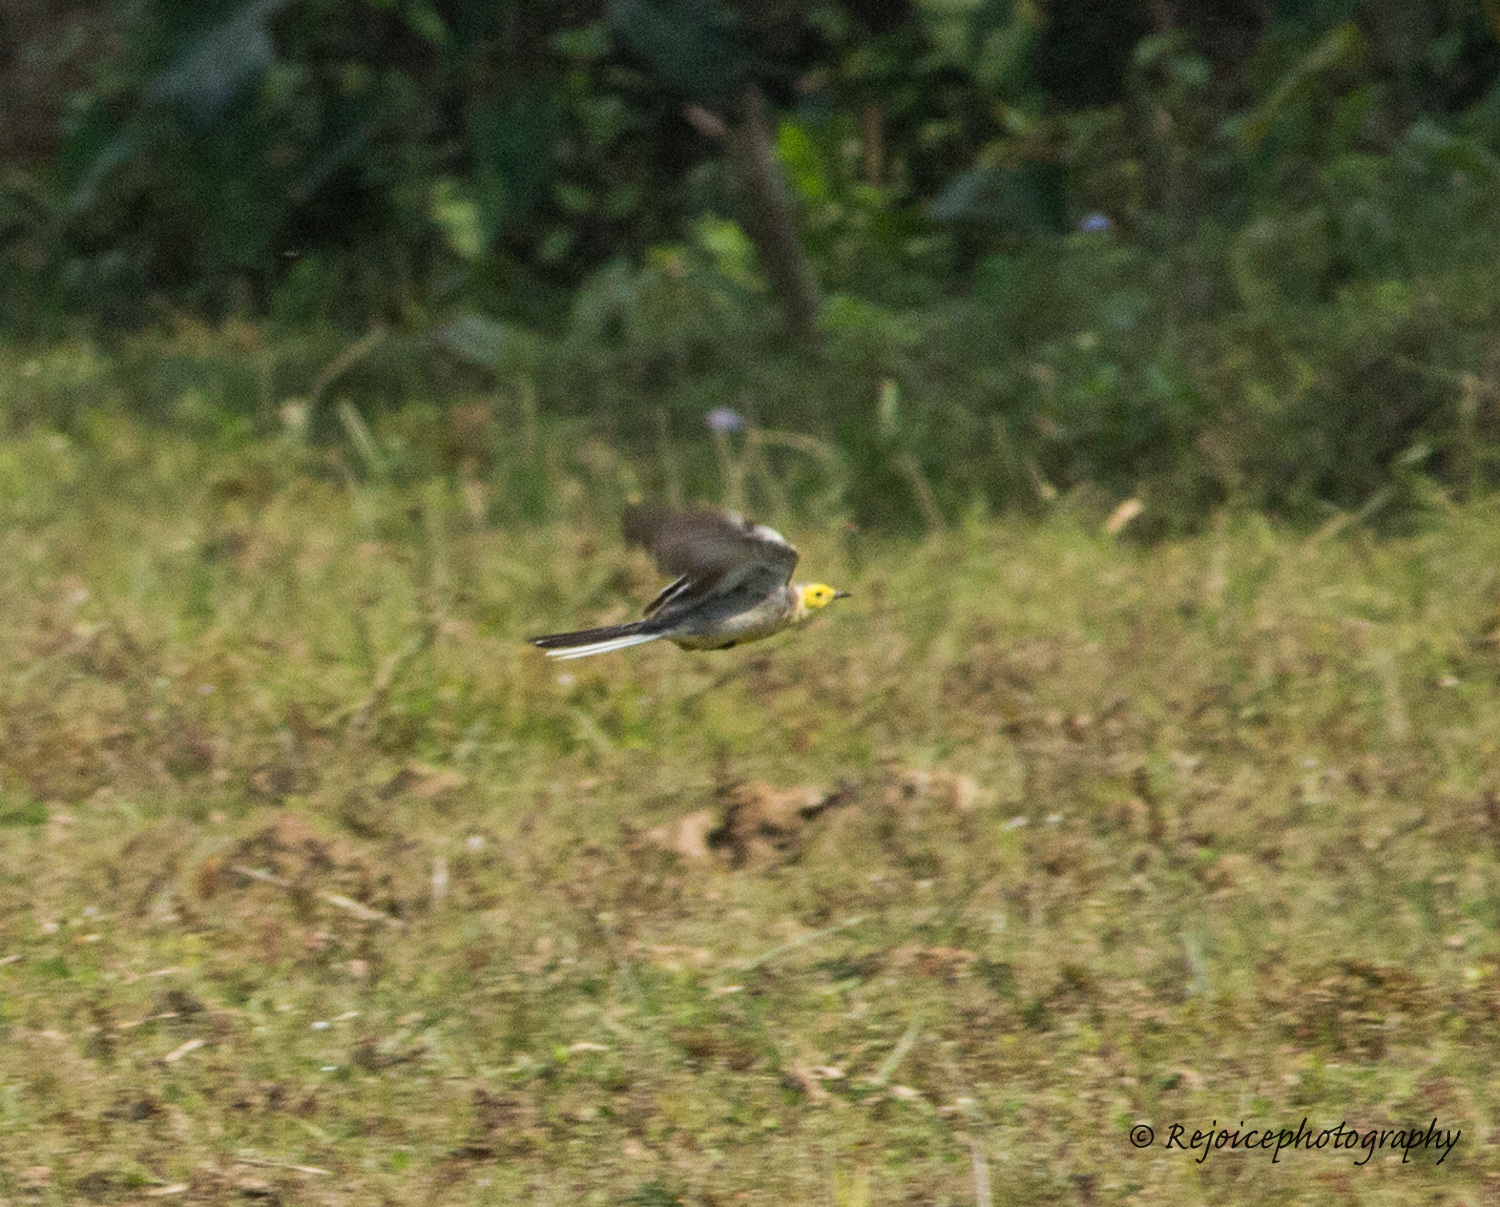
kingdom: Animalia
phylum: Chordata
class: Aves
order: Passeriformes
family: Motacillidae
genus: Motacilla
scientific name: Motacilla citreola
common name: Citrine wagtail
